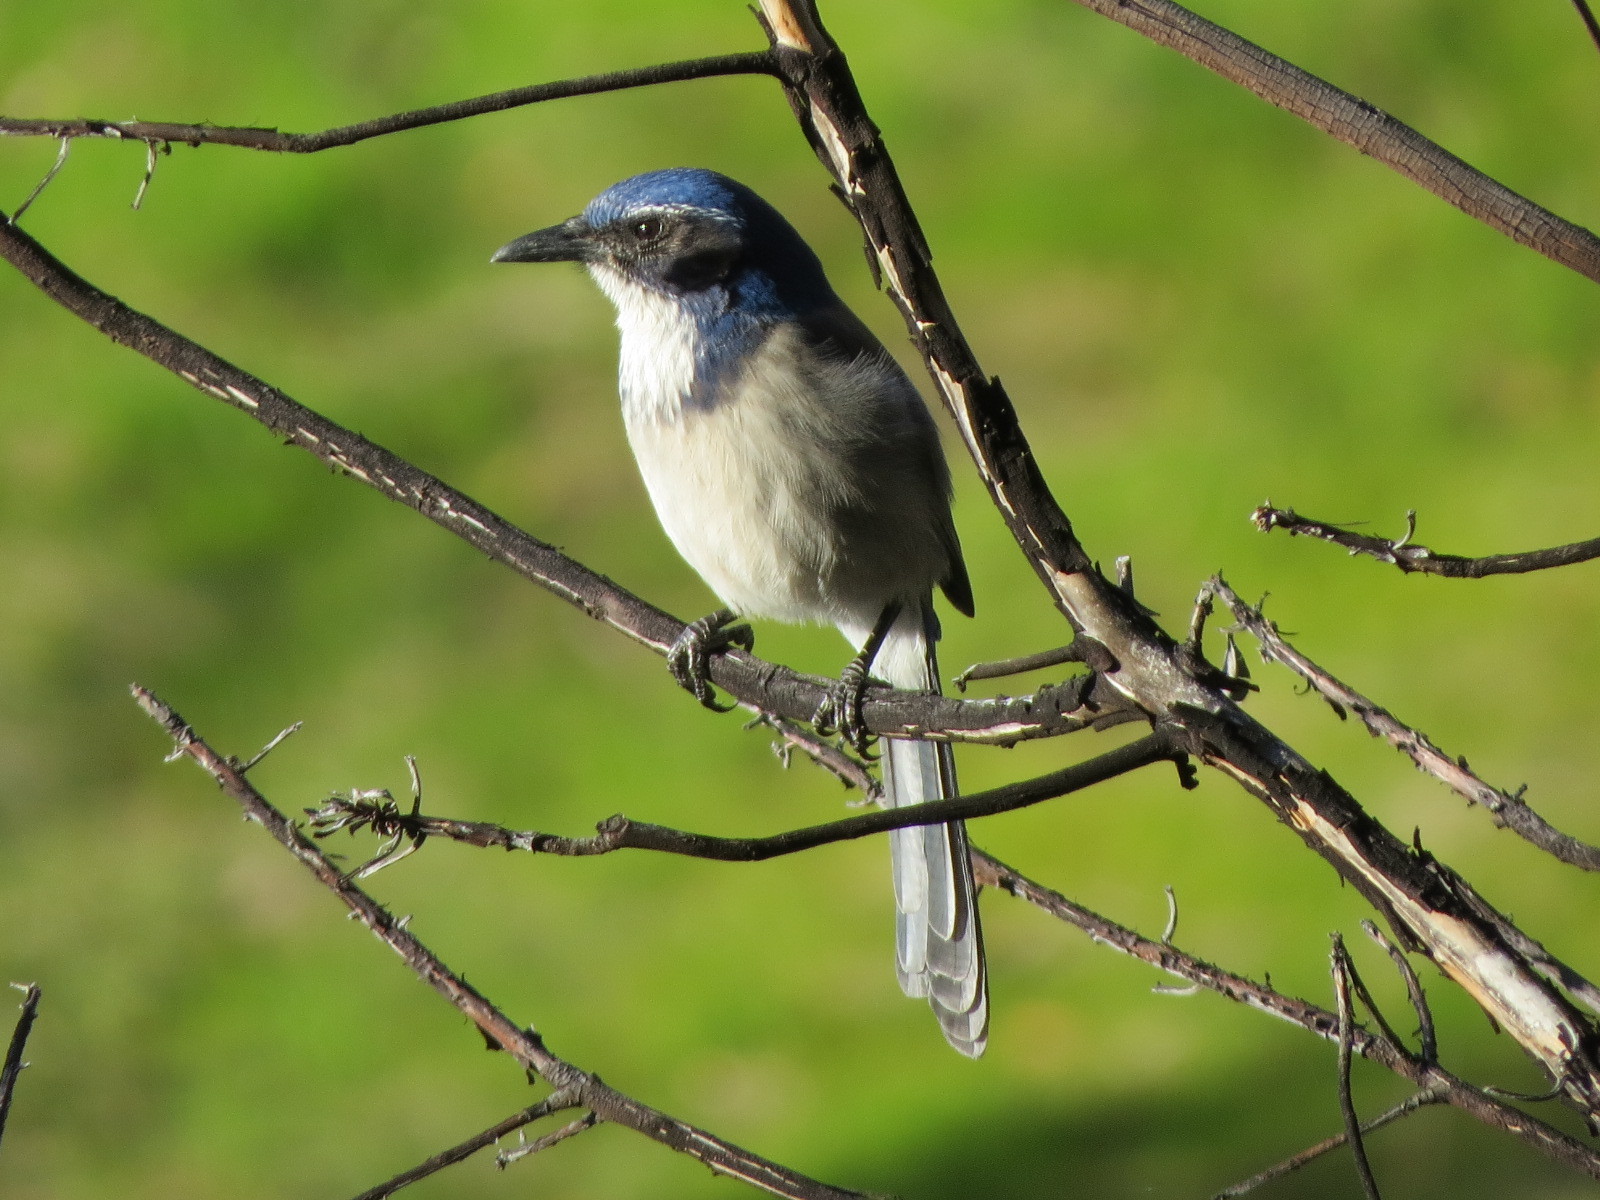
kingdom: Animalia
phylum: Chordata
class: Aves
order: Passeriformes
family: Corvidae
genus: Aphelocoma
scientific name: Aphelocoma californica
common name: California scrub-jay
